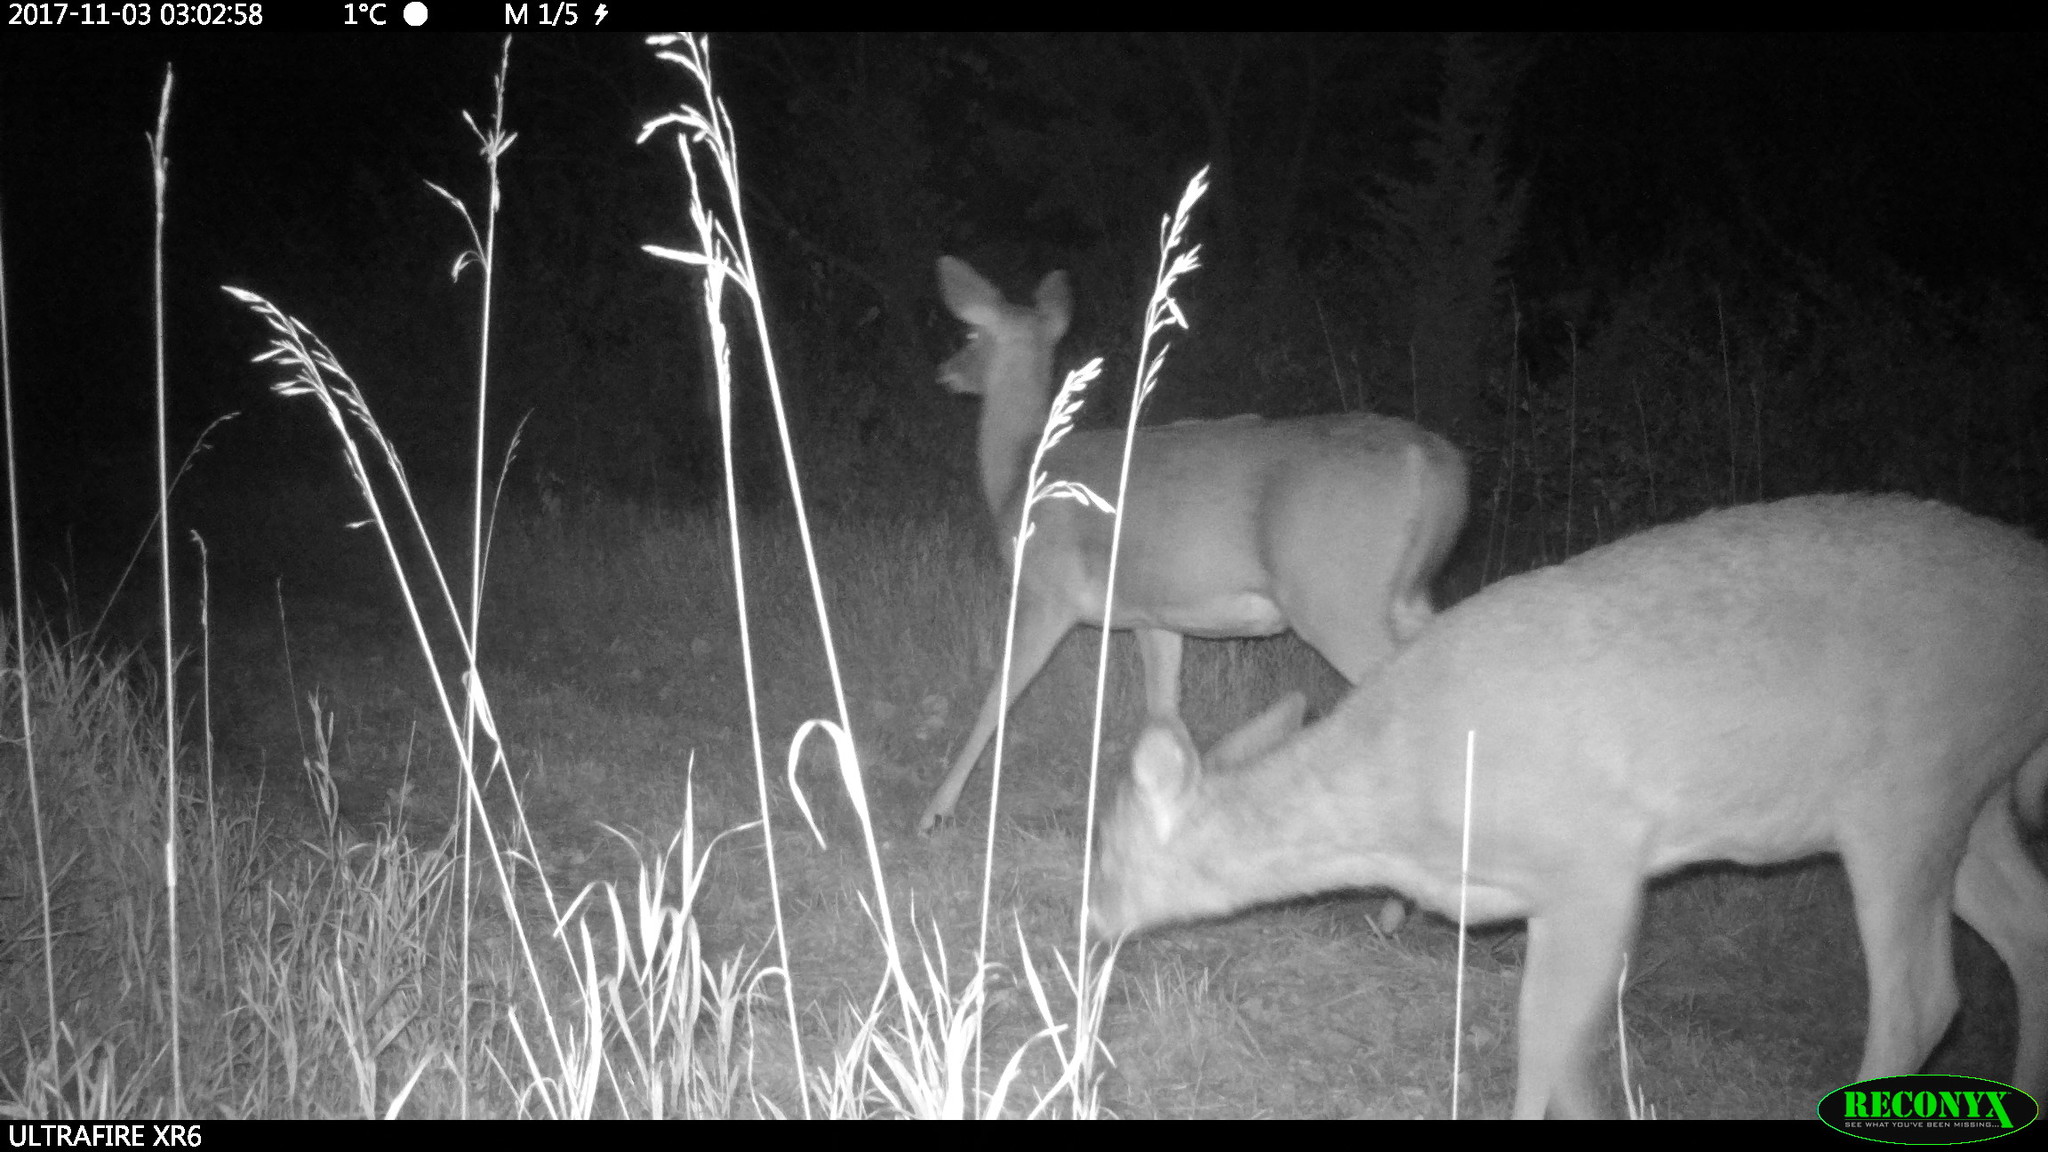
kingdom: Animalia
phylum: Chordata
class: Mammalia
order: Artiodactyla
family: Cervidae
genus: Odocoileus
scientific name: Odocoileus virginianus
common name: White-tailed deer
